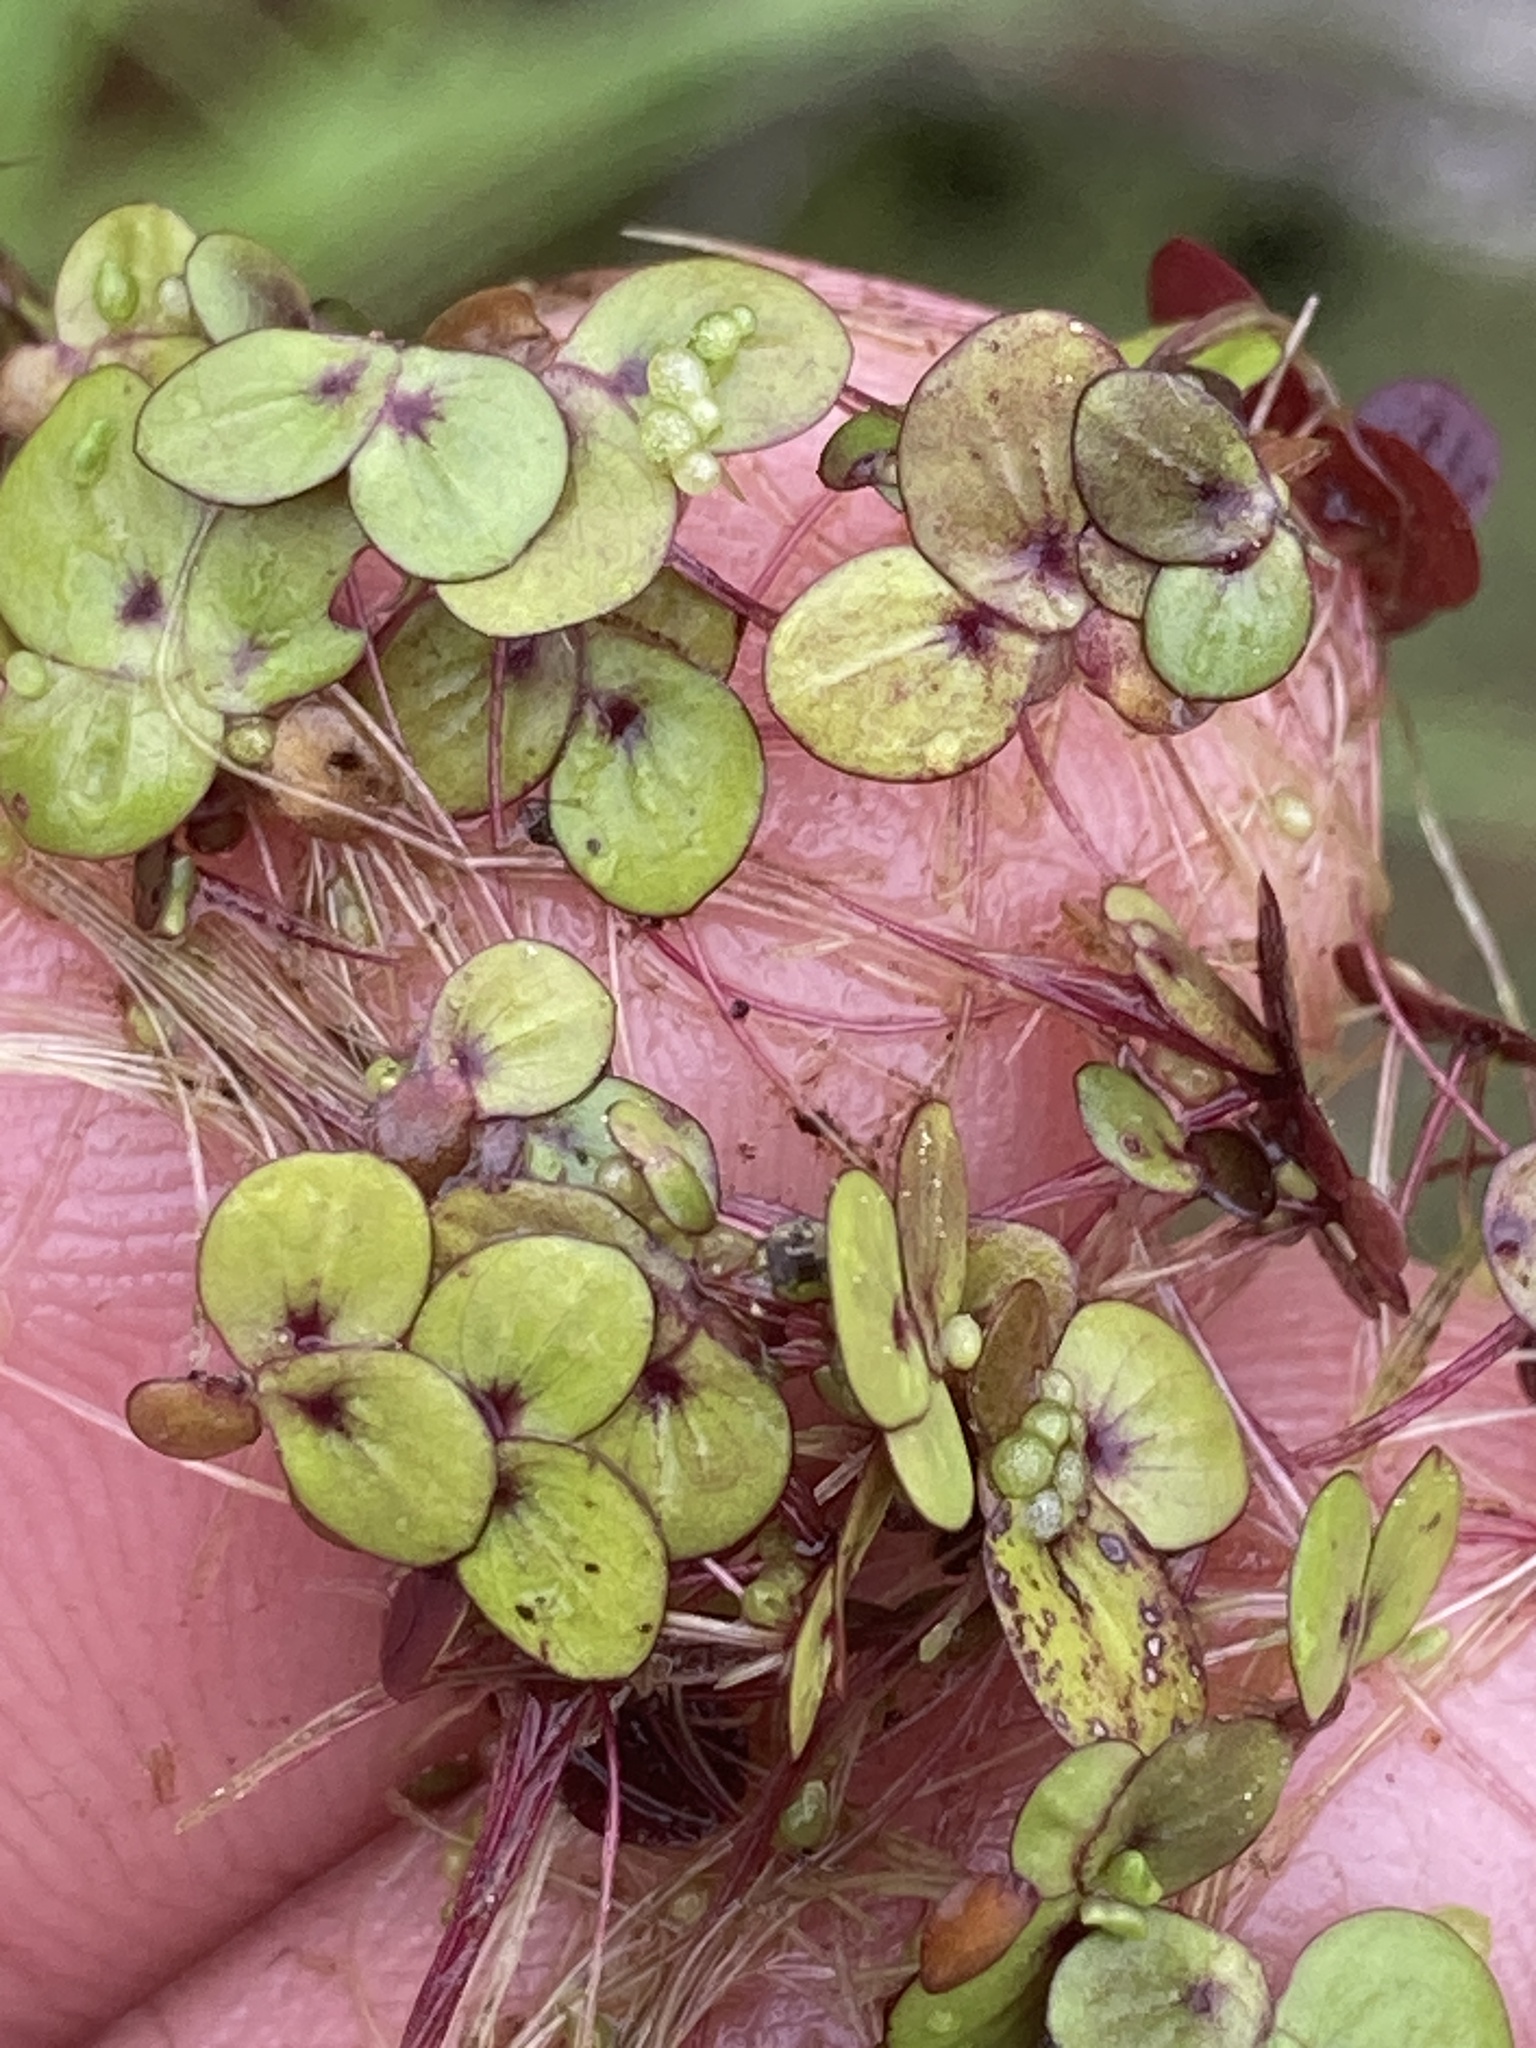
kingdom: Plantae
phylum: Tracheophyta
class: Liliopsida
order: Alismatales
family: Araceae
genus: Spirodela
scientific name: Spirodela polyrhiza
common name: Great duckweed
